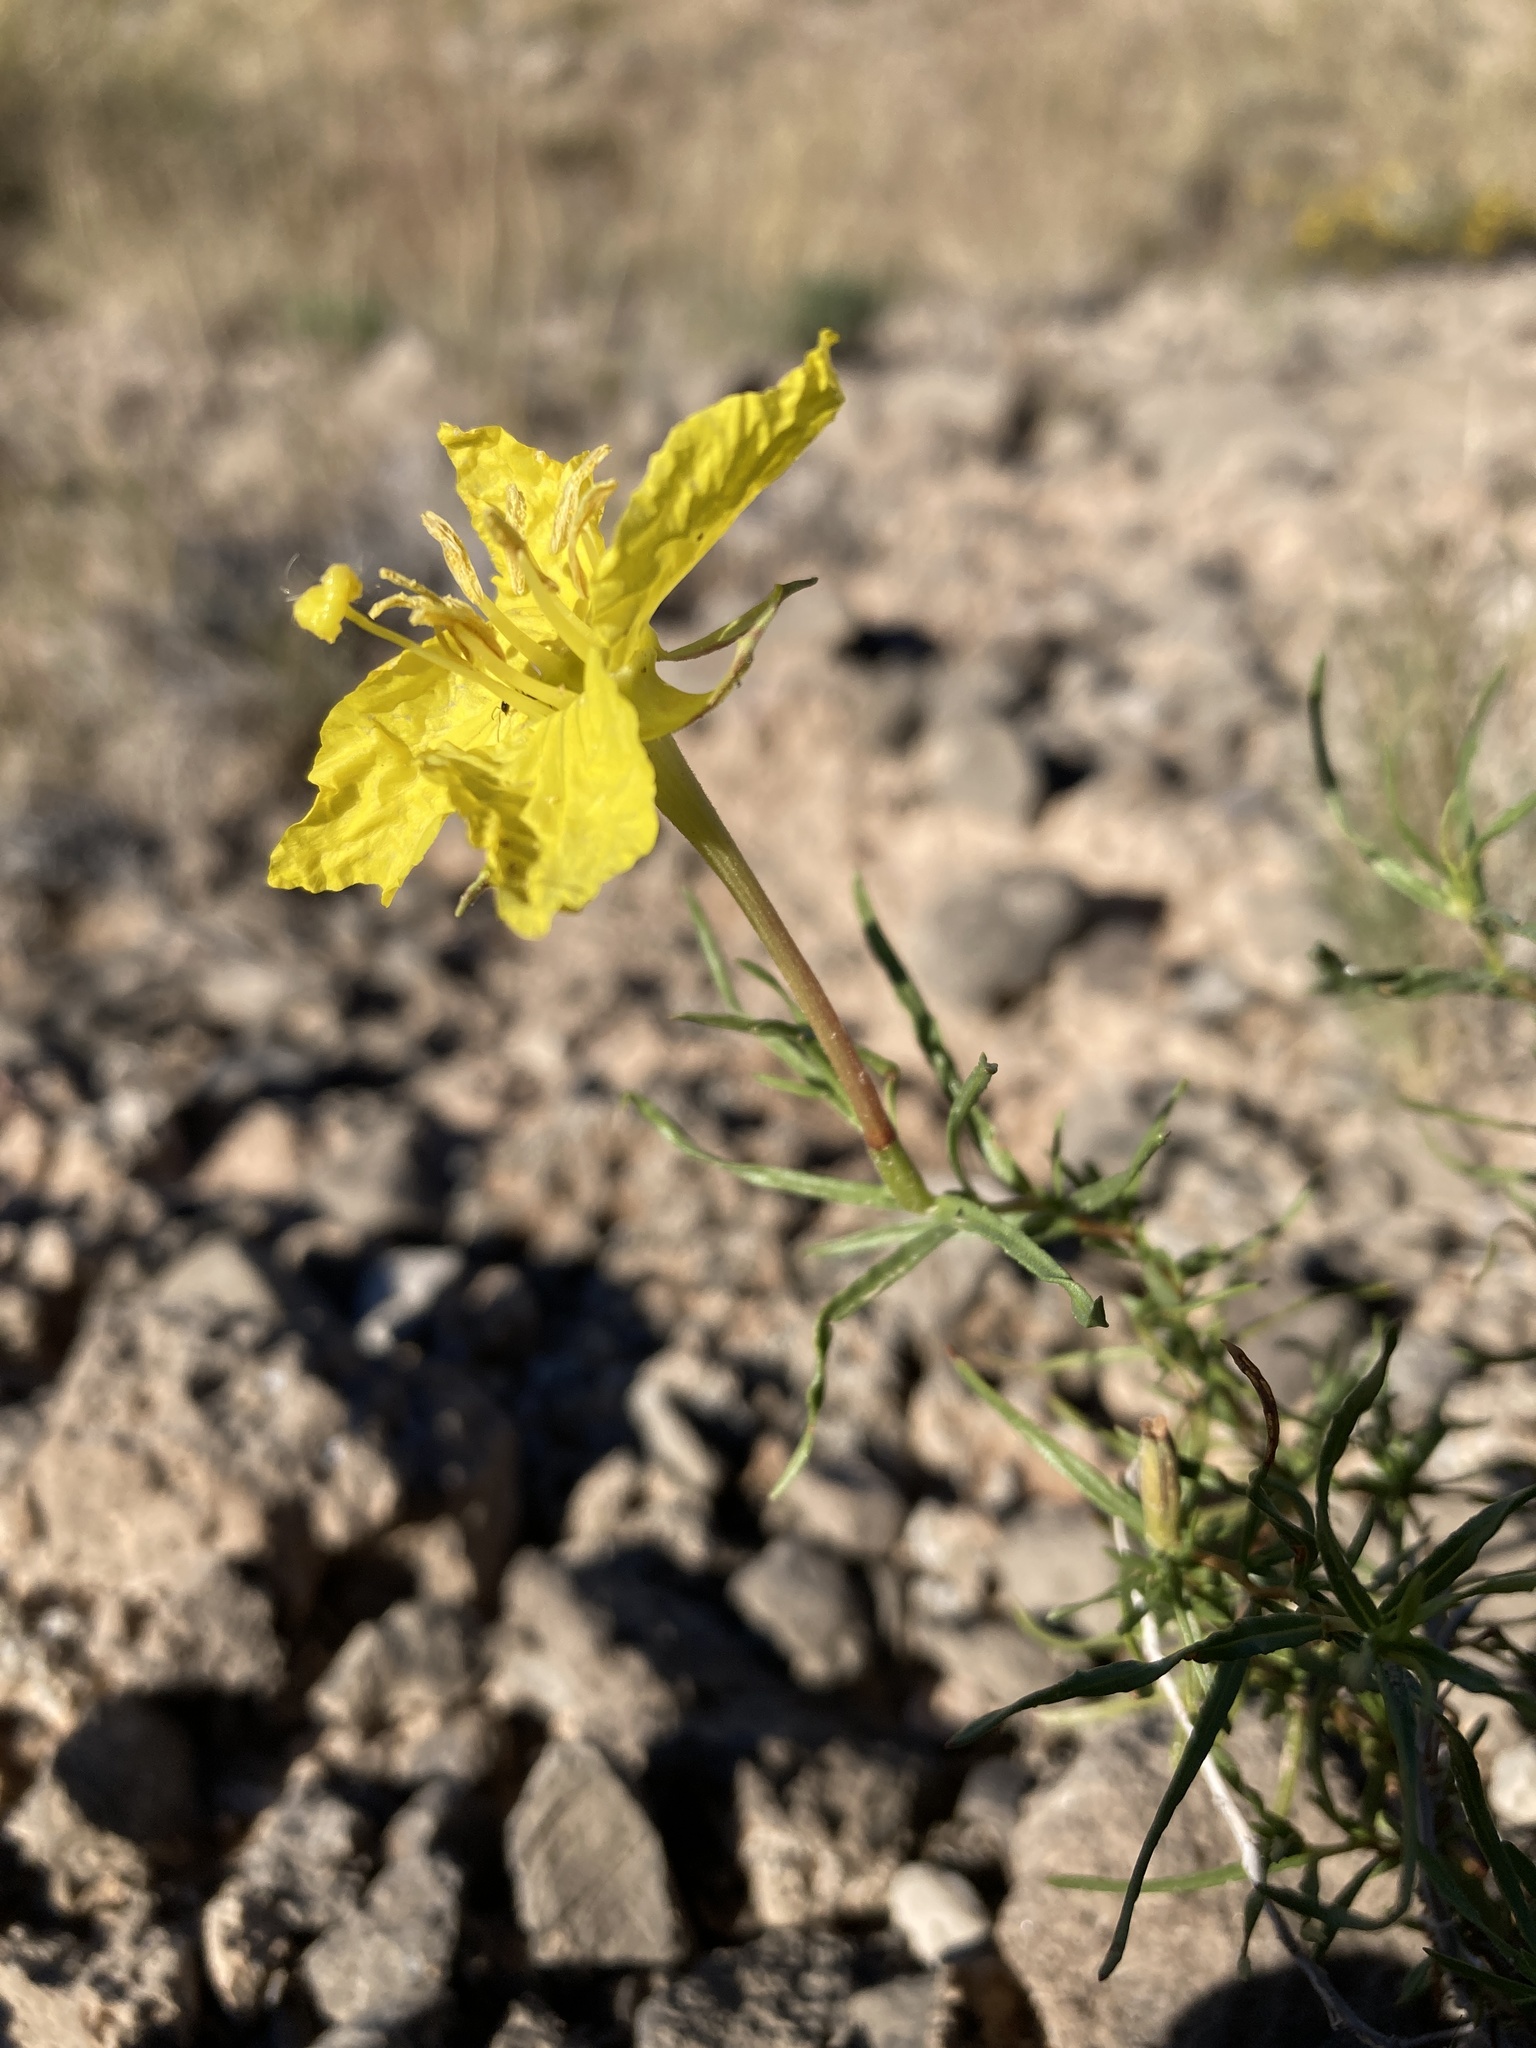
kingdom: Plantae
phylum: Tracheophyta
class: Magnoliopsida
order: Myrtales
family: Onagraceae
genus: Oenothera
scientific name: Oenothera hartwegii
